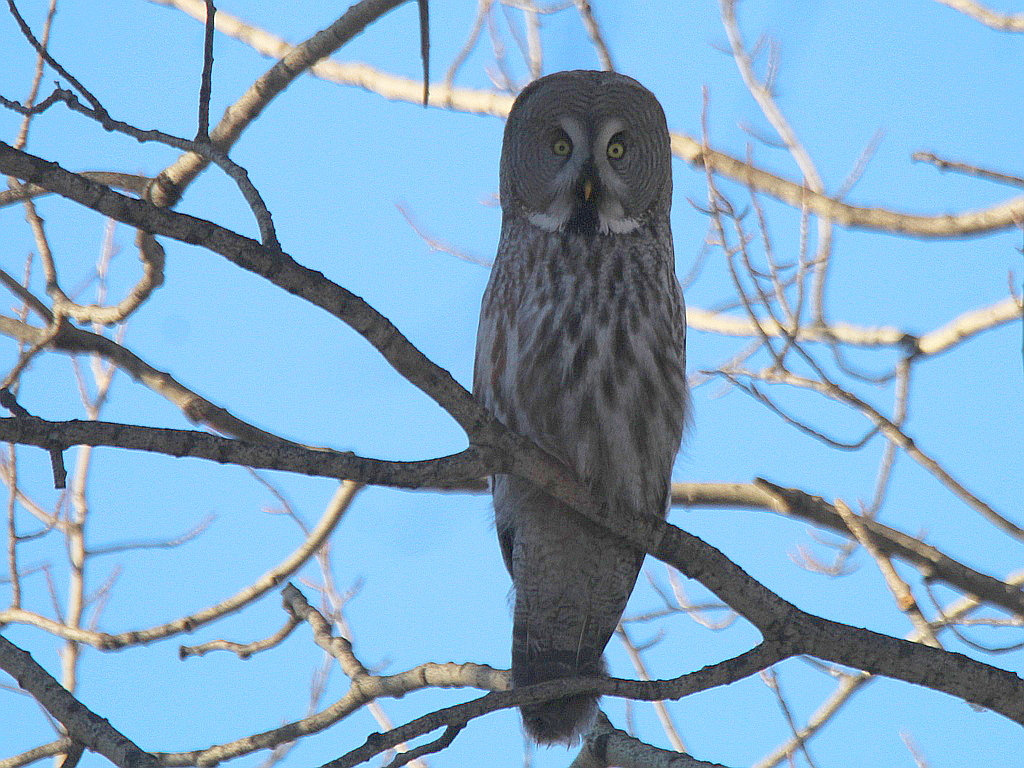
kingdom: Animalia
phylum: Chordata
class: Aves
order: Strigiformes
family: Strigidae
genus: Strix
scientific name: Strix nebulosa
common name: Great grey owl
